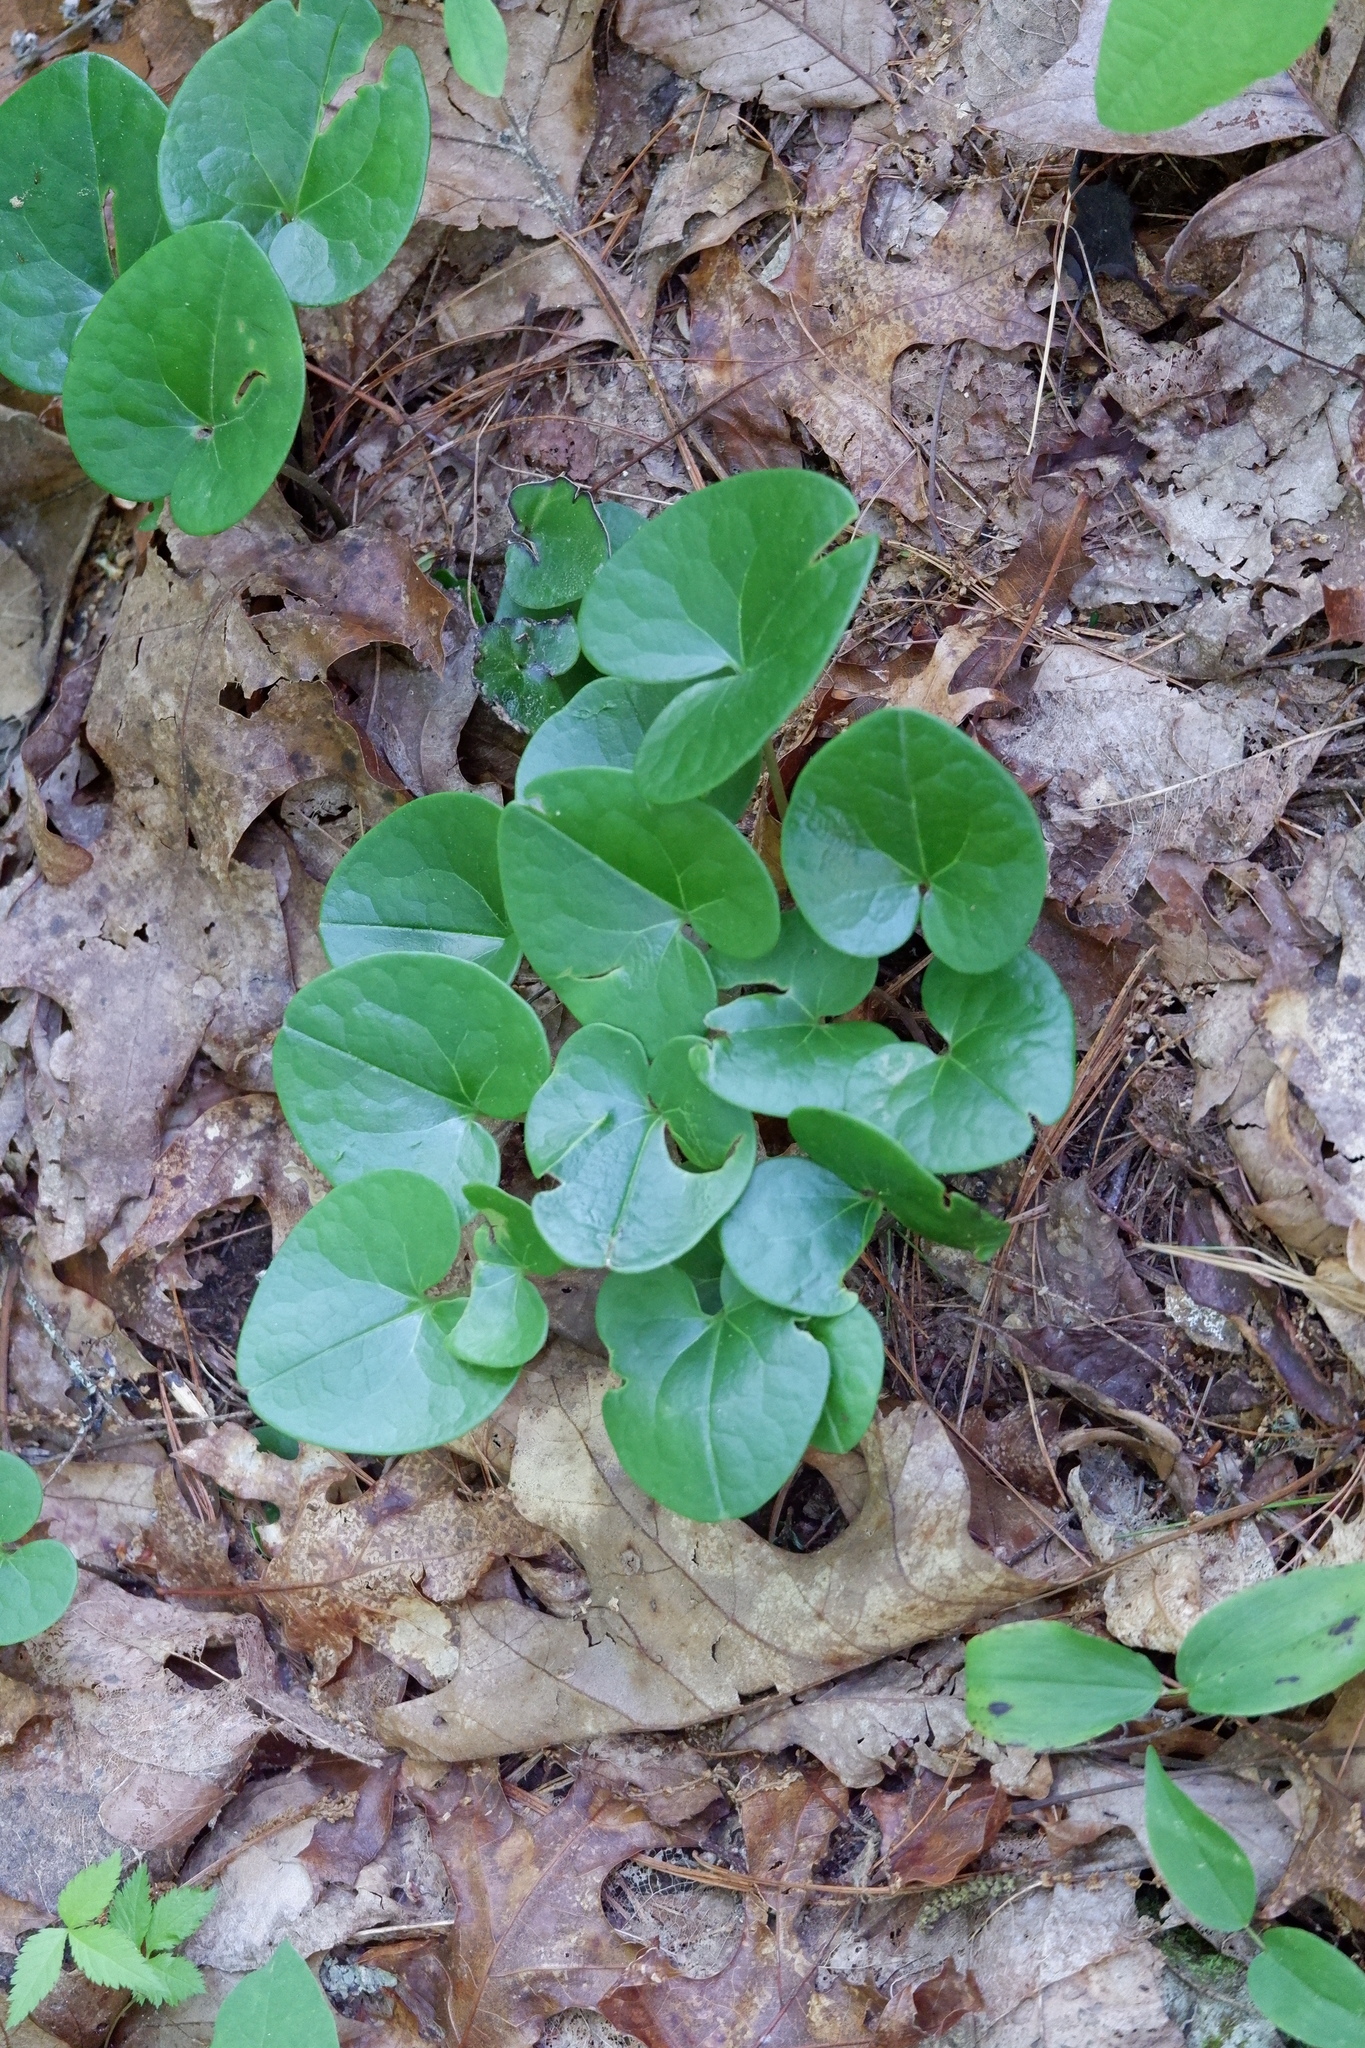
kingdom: Plantae
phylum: Tracheophyta
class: Magnoliopsida
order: Piperales
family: Aristolochiaceae
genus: Hexastylis
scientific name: Hexastylis shuttleworthii
